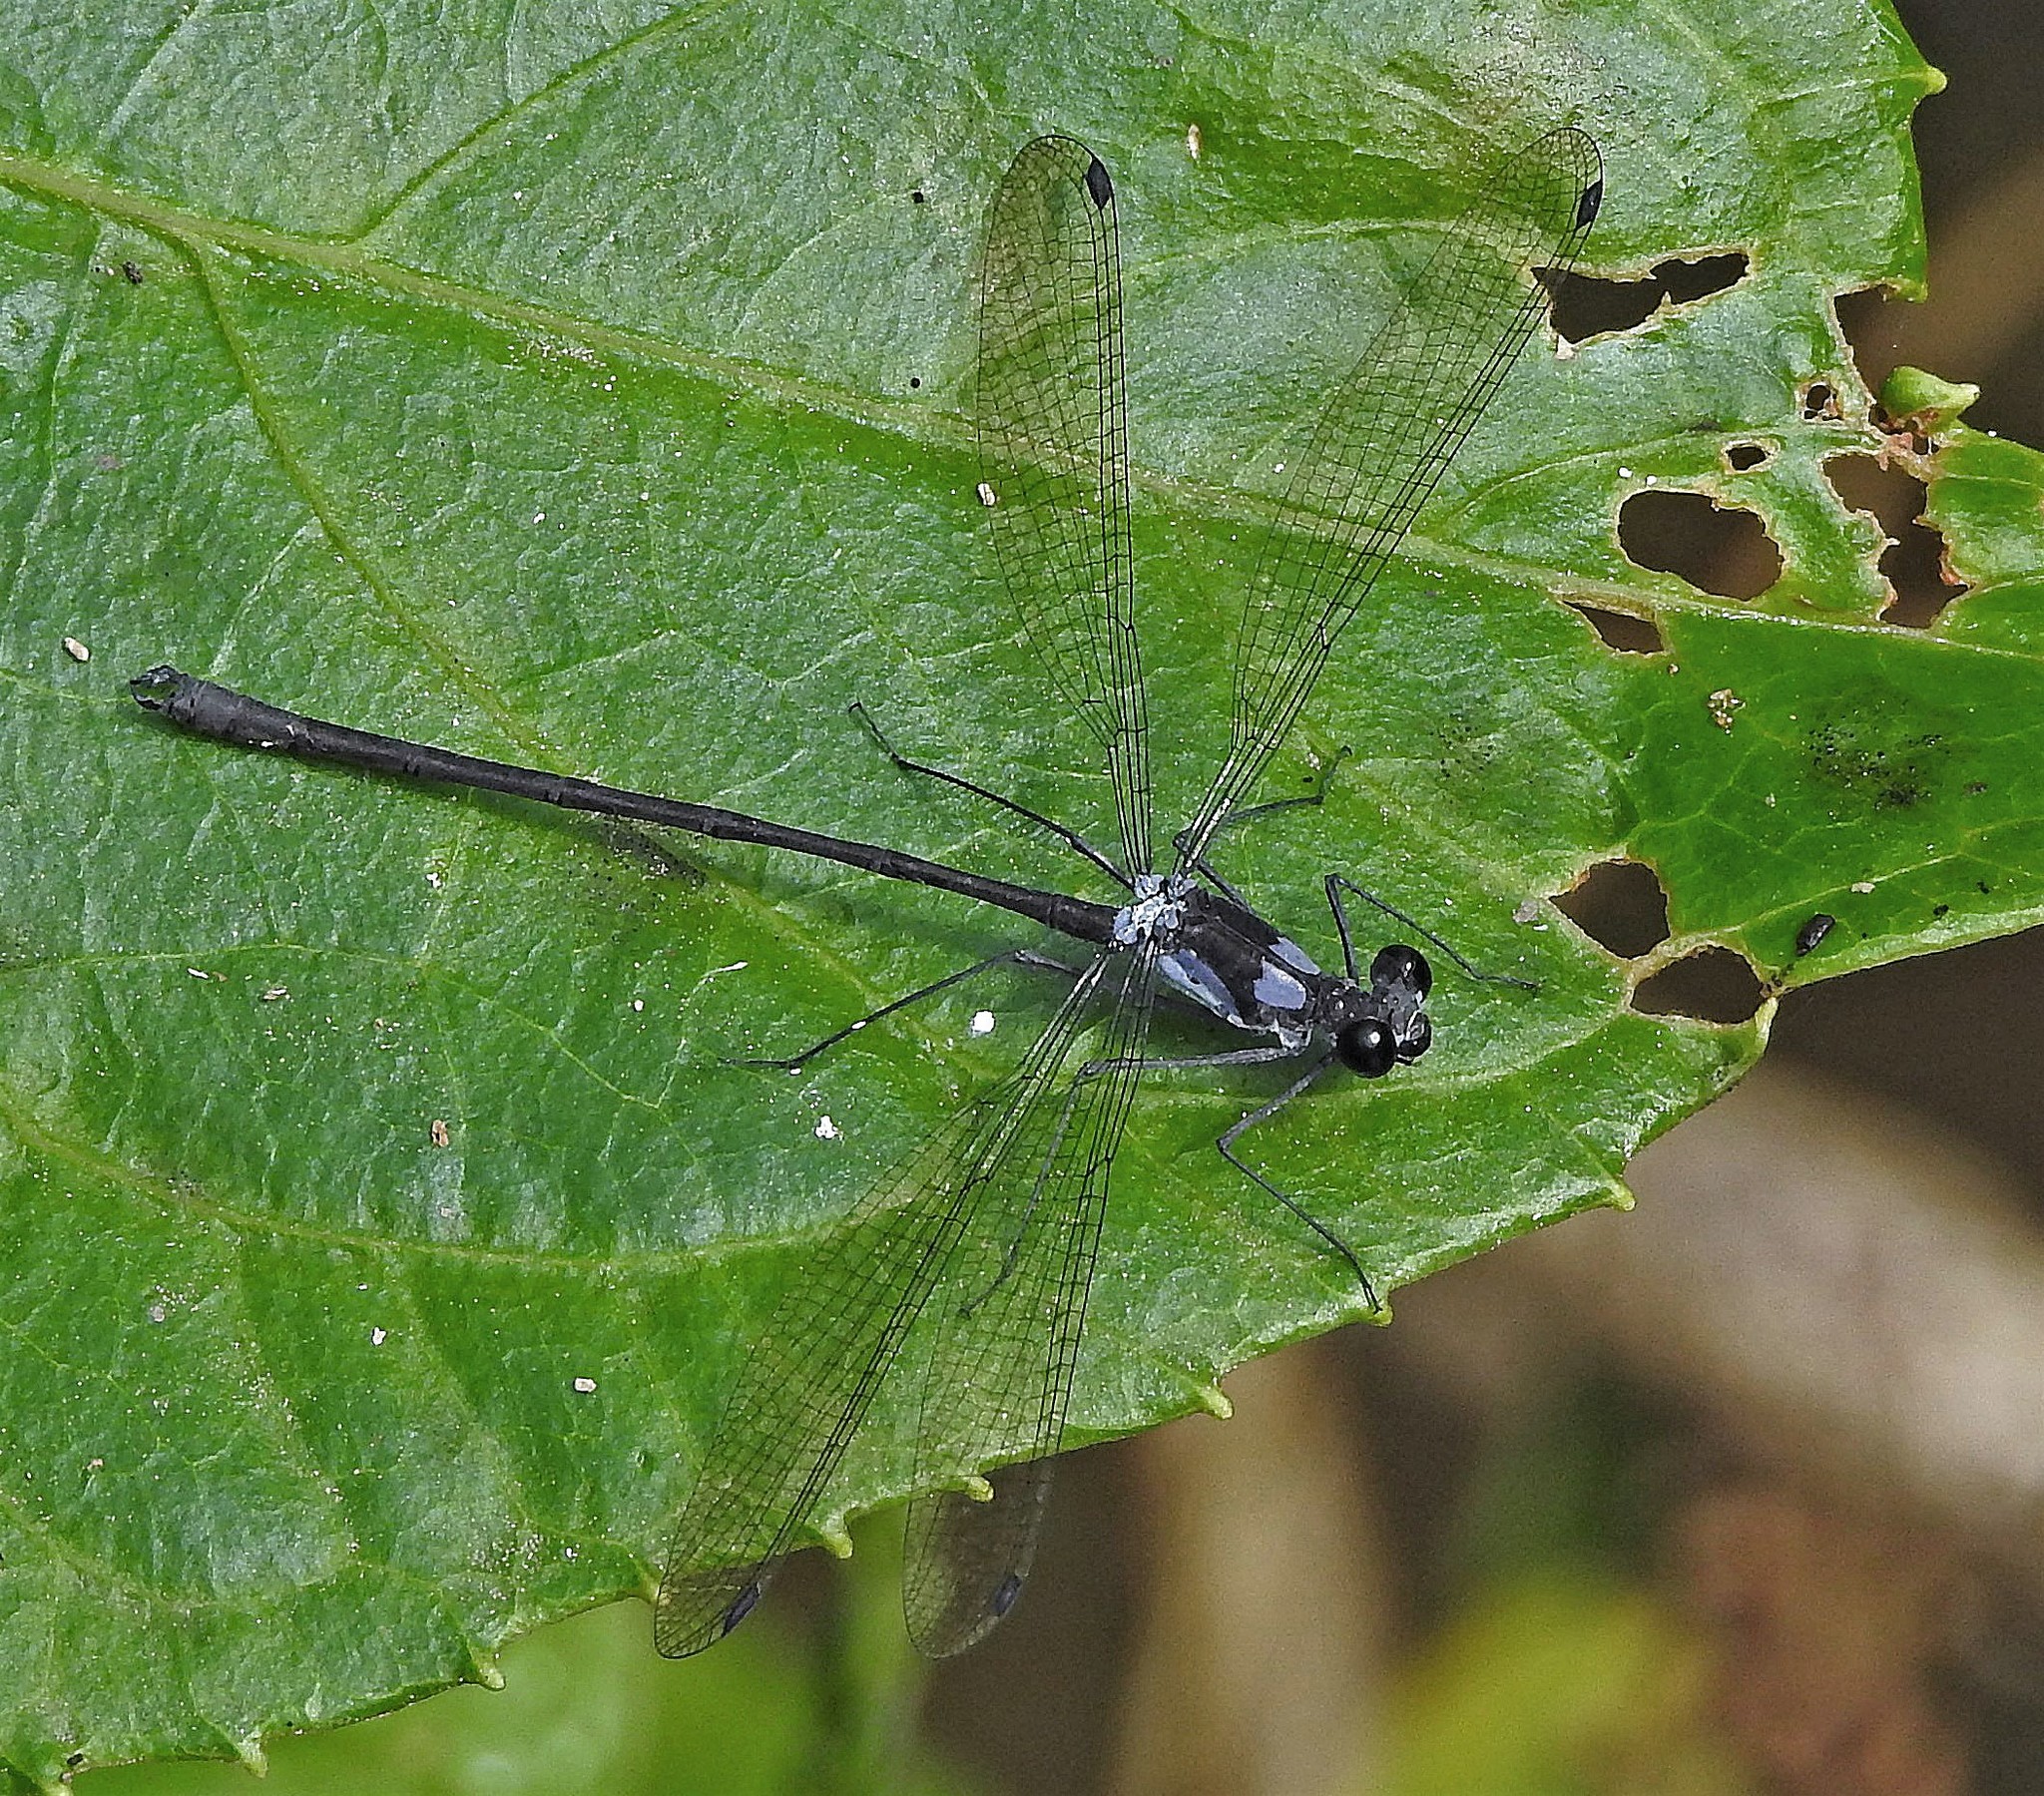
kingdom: Animalia
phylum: Arthropoda
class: Insecta
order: Odonata
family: Megapodagrionidae
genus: Teinopodagrion
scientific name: Teinopodagrion meridionale
